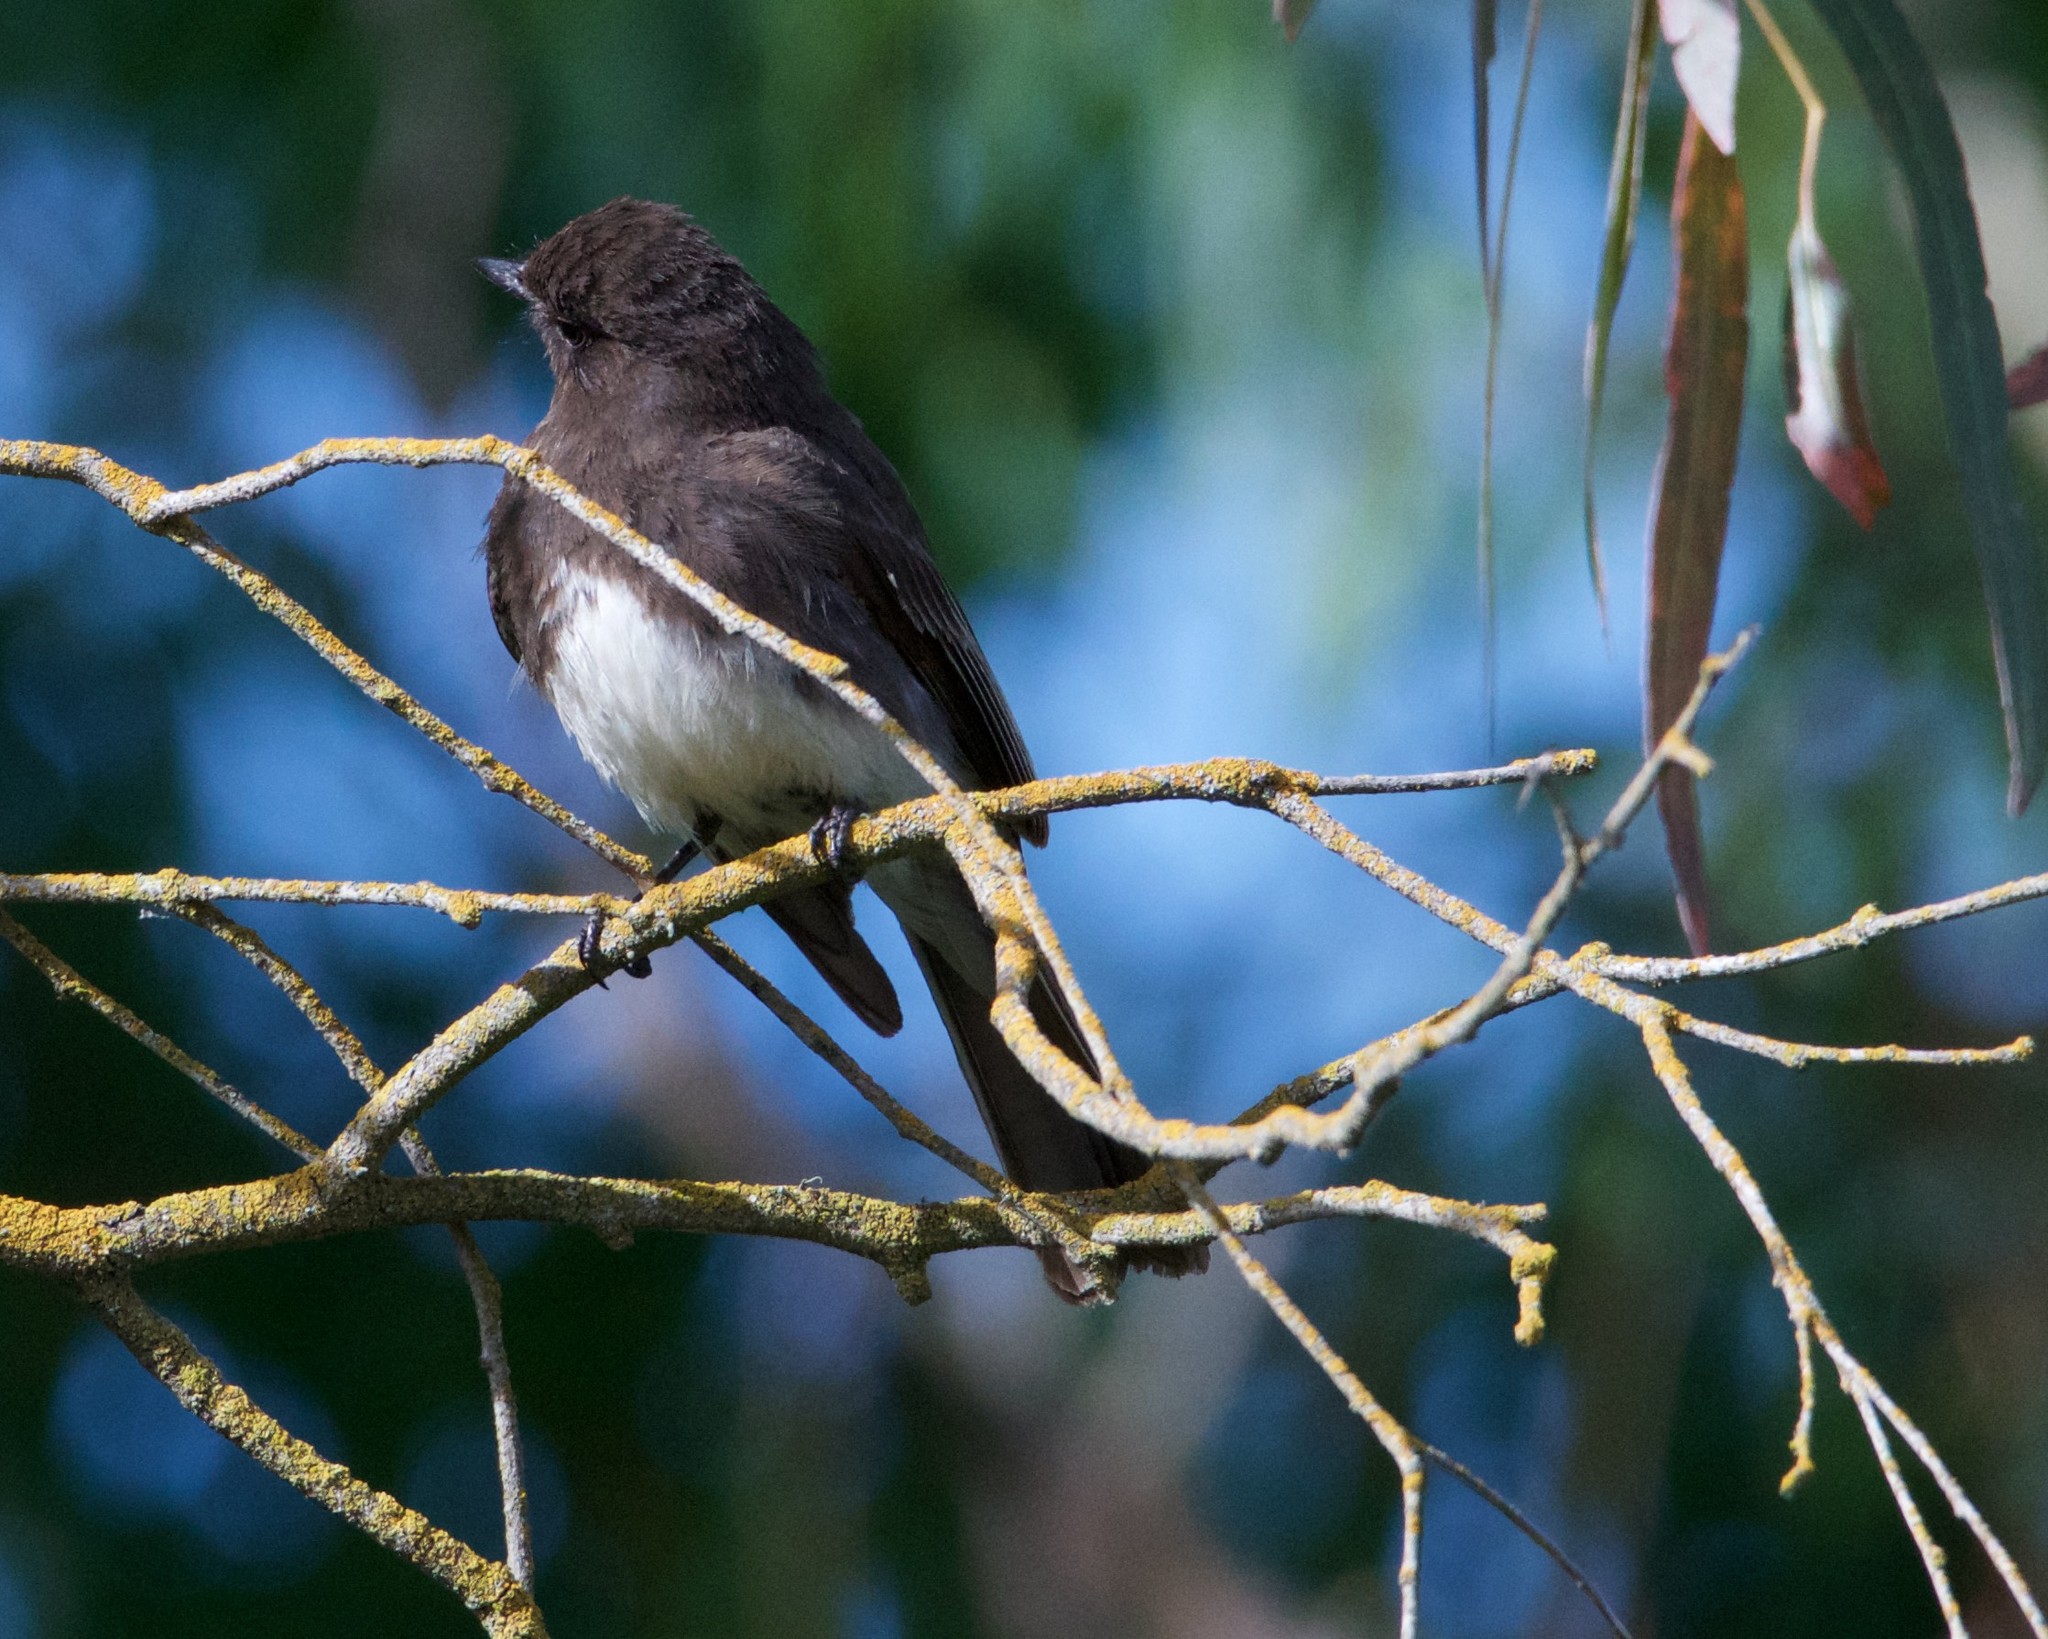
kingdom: Animalia
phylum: Chordata
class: Aves
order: Passeriformes
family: Tyrannidae
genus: Sayornis
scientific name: Sayornis nigricans
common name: Black phoebe
